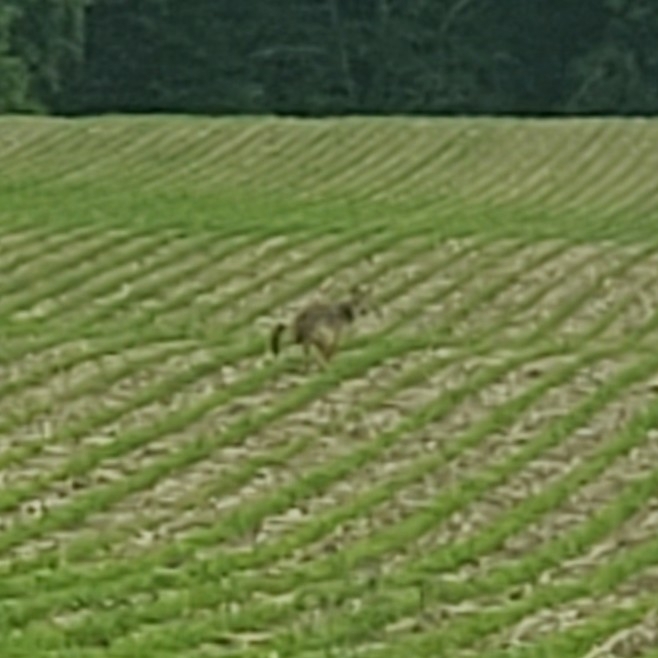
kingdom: Animalia
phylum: Chordata
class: Mammalia
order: Carnivora
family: Canidae
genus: Canis
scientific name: Canis latrans
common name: Coyote
